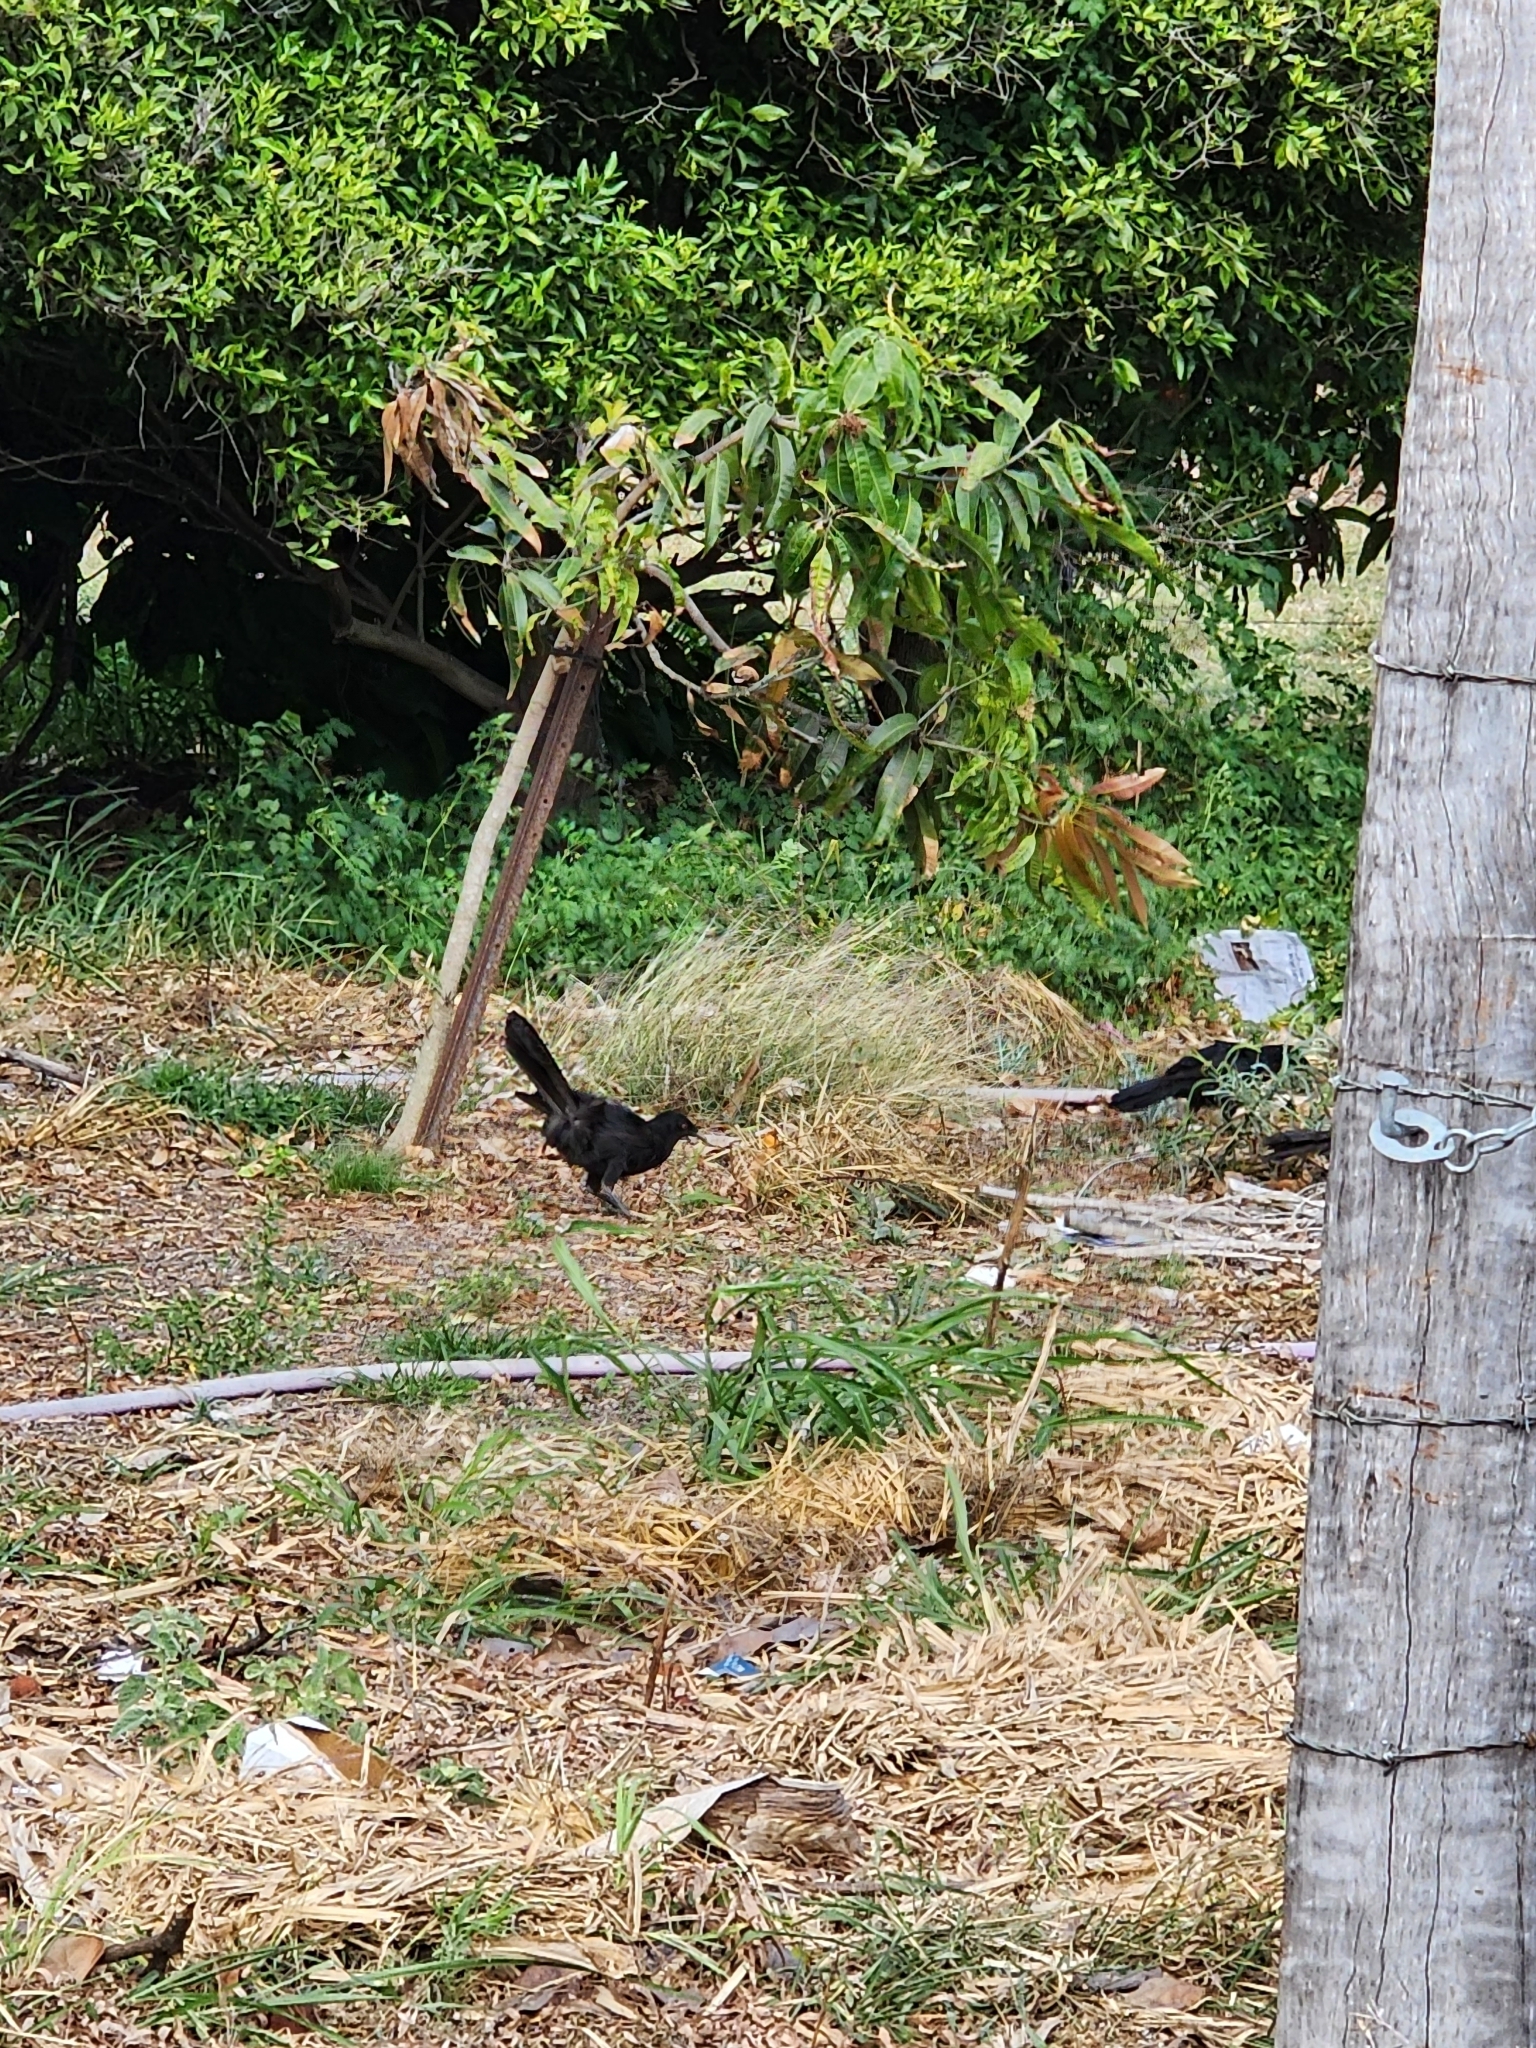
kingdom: Animalia
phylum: Chordata
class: Aves
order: Passeriformes
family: Corcoracidae
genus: Corcorax
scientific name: Corcorax melanoramphos
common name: White-winged chough
